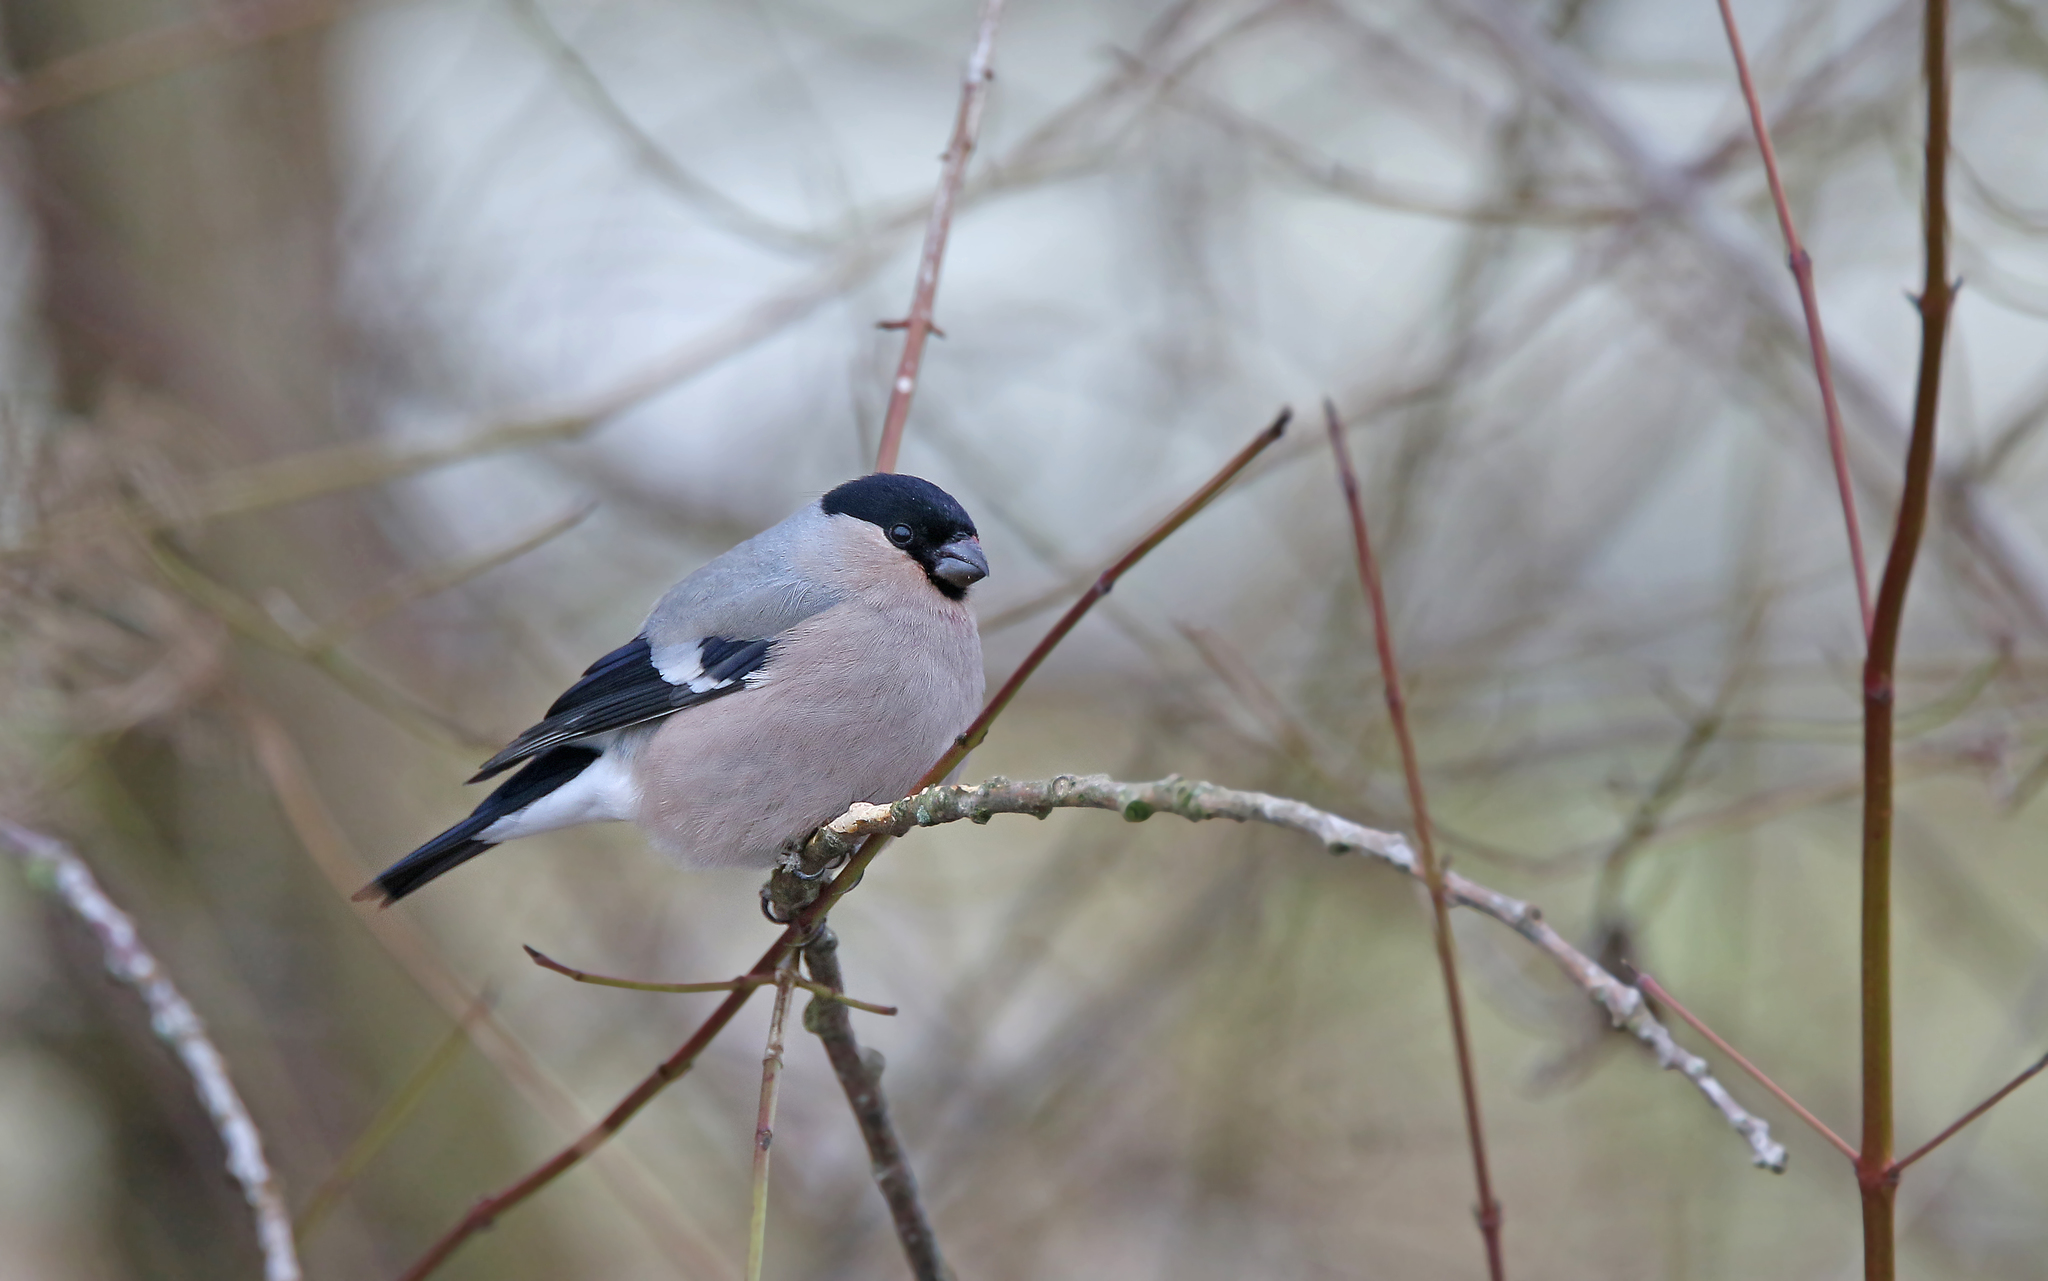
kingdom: Animalia
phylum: Chordata
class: Aves
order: Passeriformes
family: Fringillidae
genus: Pyrrhula
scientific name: Pyrrhula pyrrhula
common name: Eurasian bullfinch
